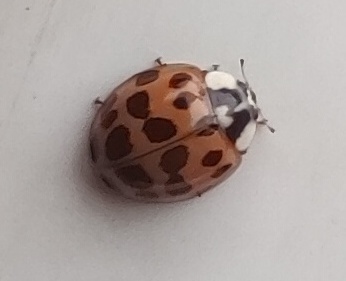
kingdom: Animalia
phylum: Arthropoda
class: Insecta
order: Coleoptera
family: Coccinellidae
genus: Harmonia
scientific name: Harmonia axyridis
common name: Harlequin ladybird
